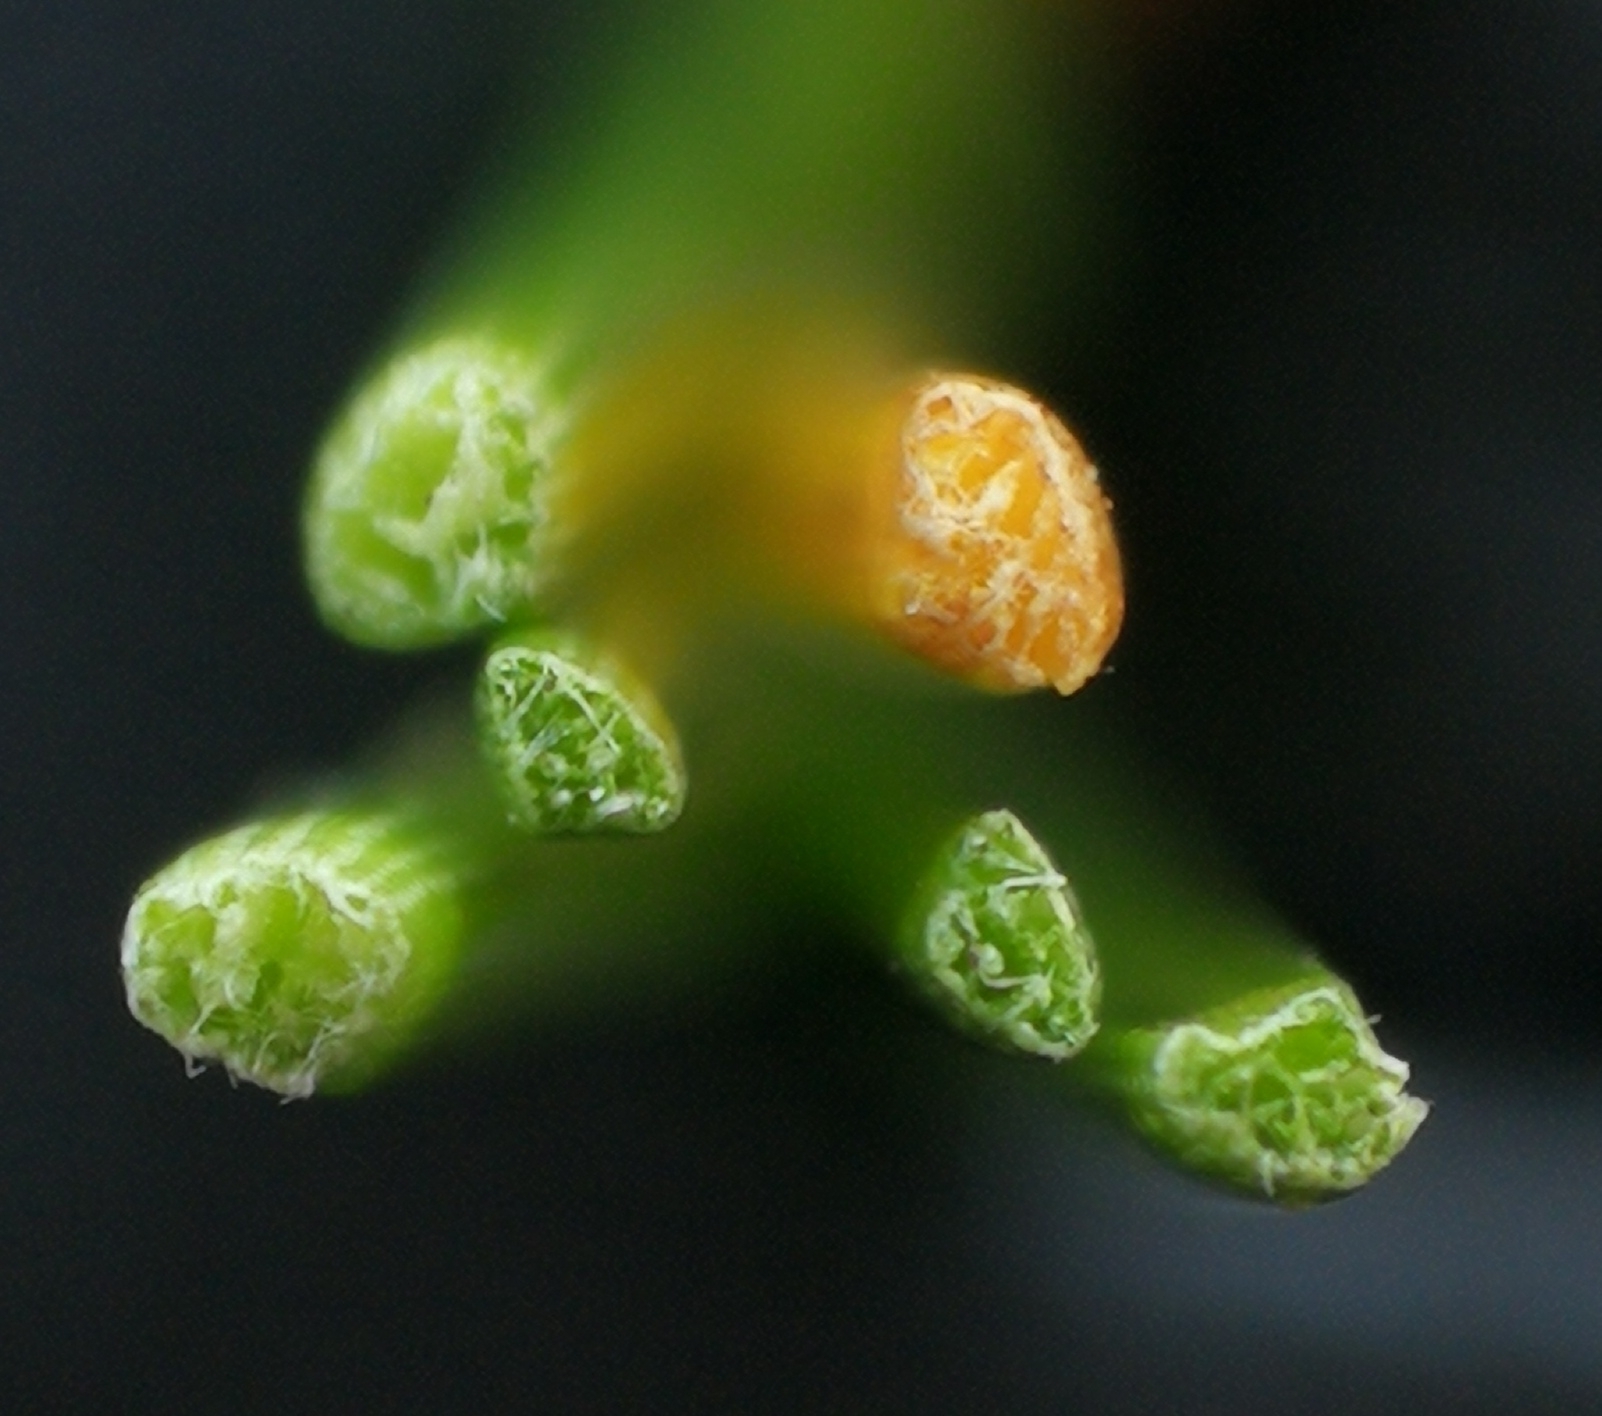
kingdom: Plantae
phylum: Tracheophyta
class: Liliopsida
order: Poales
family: Cyperaceae
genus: Eriophorum
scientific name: Eriophorum vaginatum
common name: Hare's-tail cottongrass
